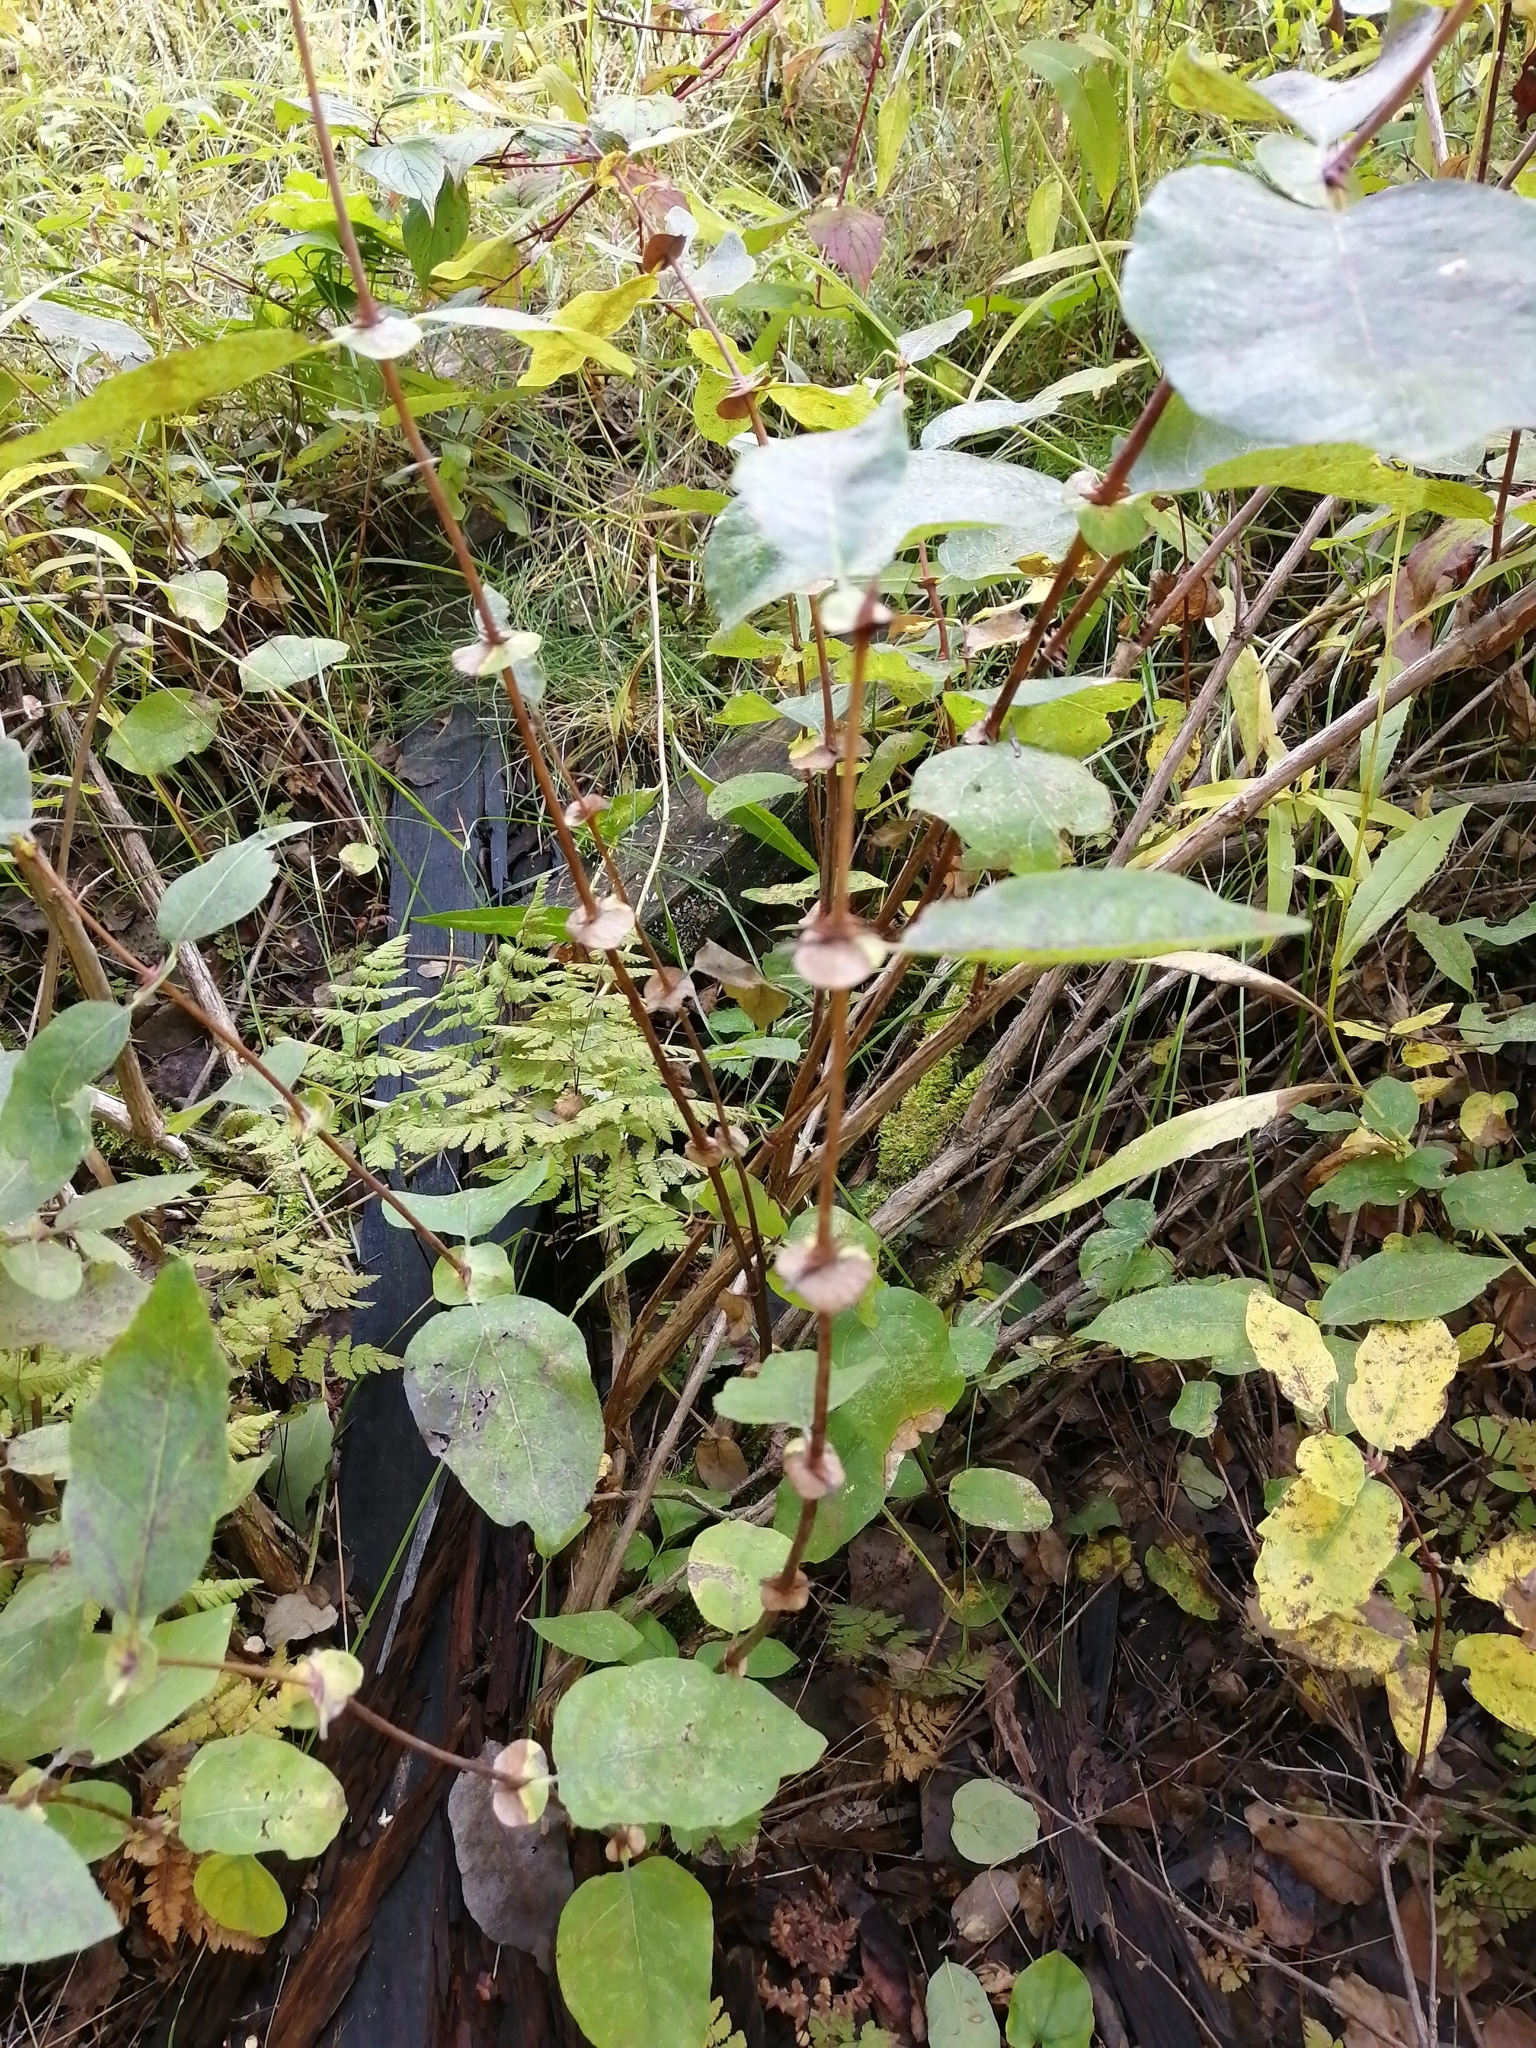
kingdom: Plantae
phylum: Tracheophyta
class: Magnoliopsida
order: Dipsacales
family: Caprifoliaceae
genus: Lonicera
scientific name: Lonicera caerulea
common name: Blue honeysuckle
